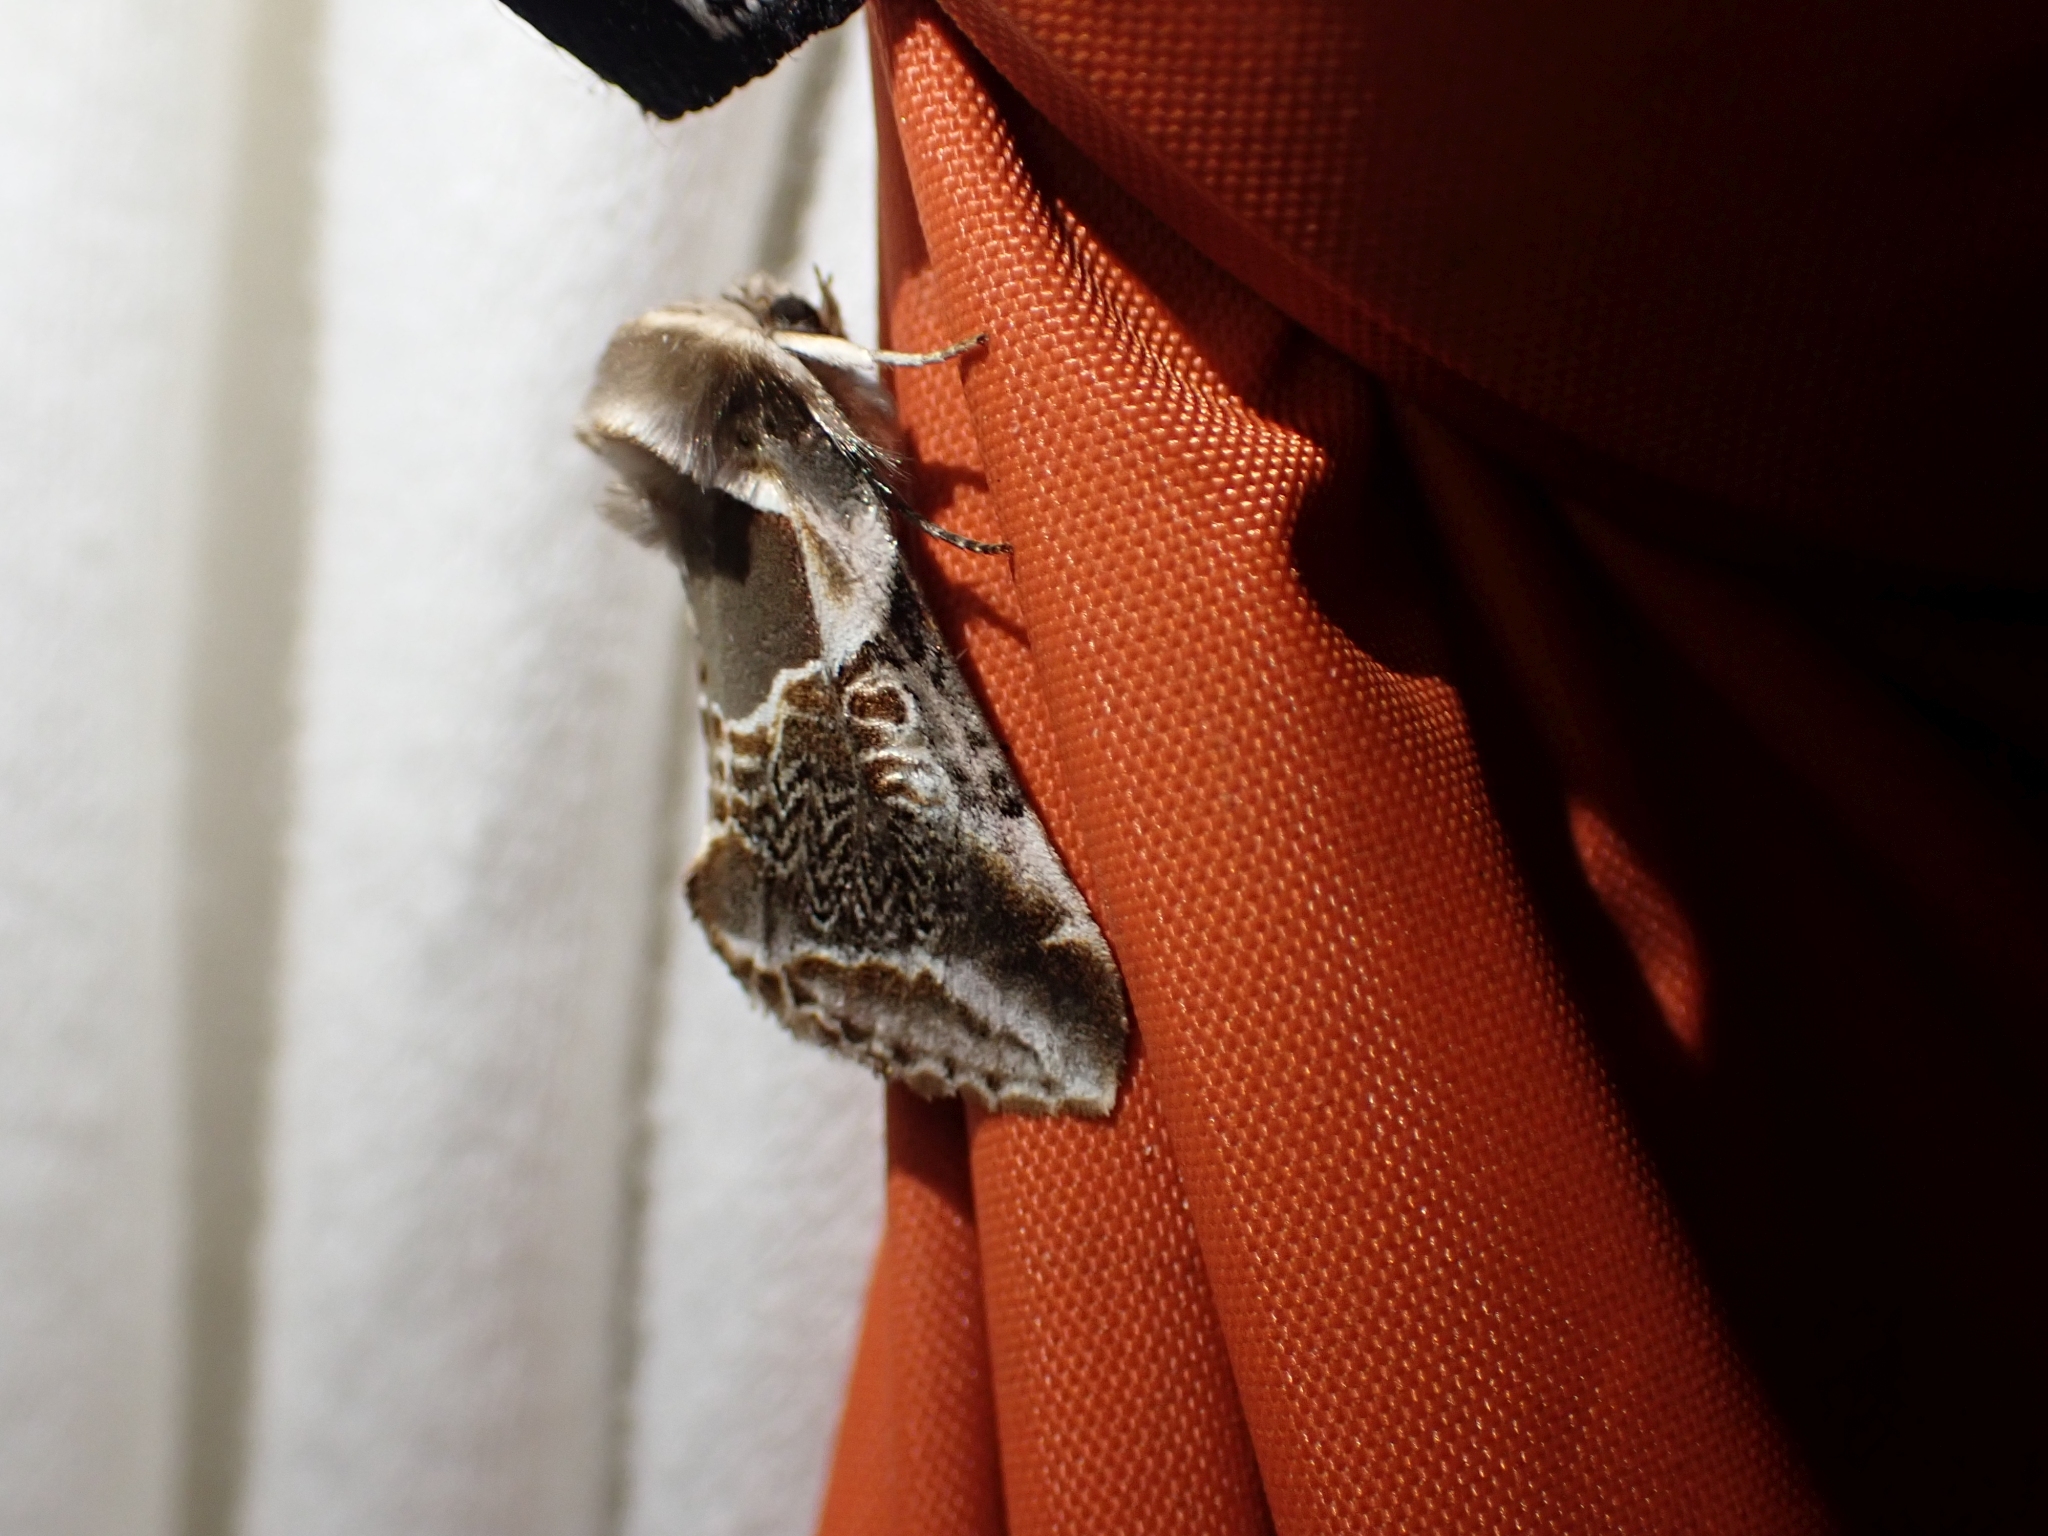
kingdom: Animalia
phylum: Arthropoda
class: Insecta
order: Lepidoptera
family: Drepanidae
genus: Habrosyne
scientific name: Habrosyne scripta
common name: Lettered habrosyne moth
